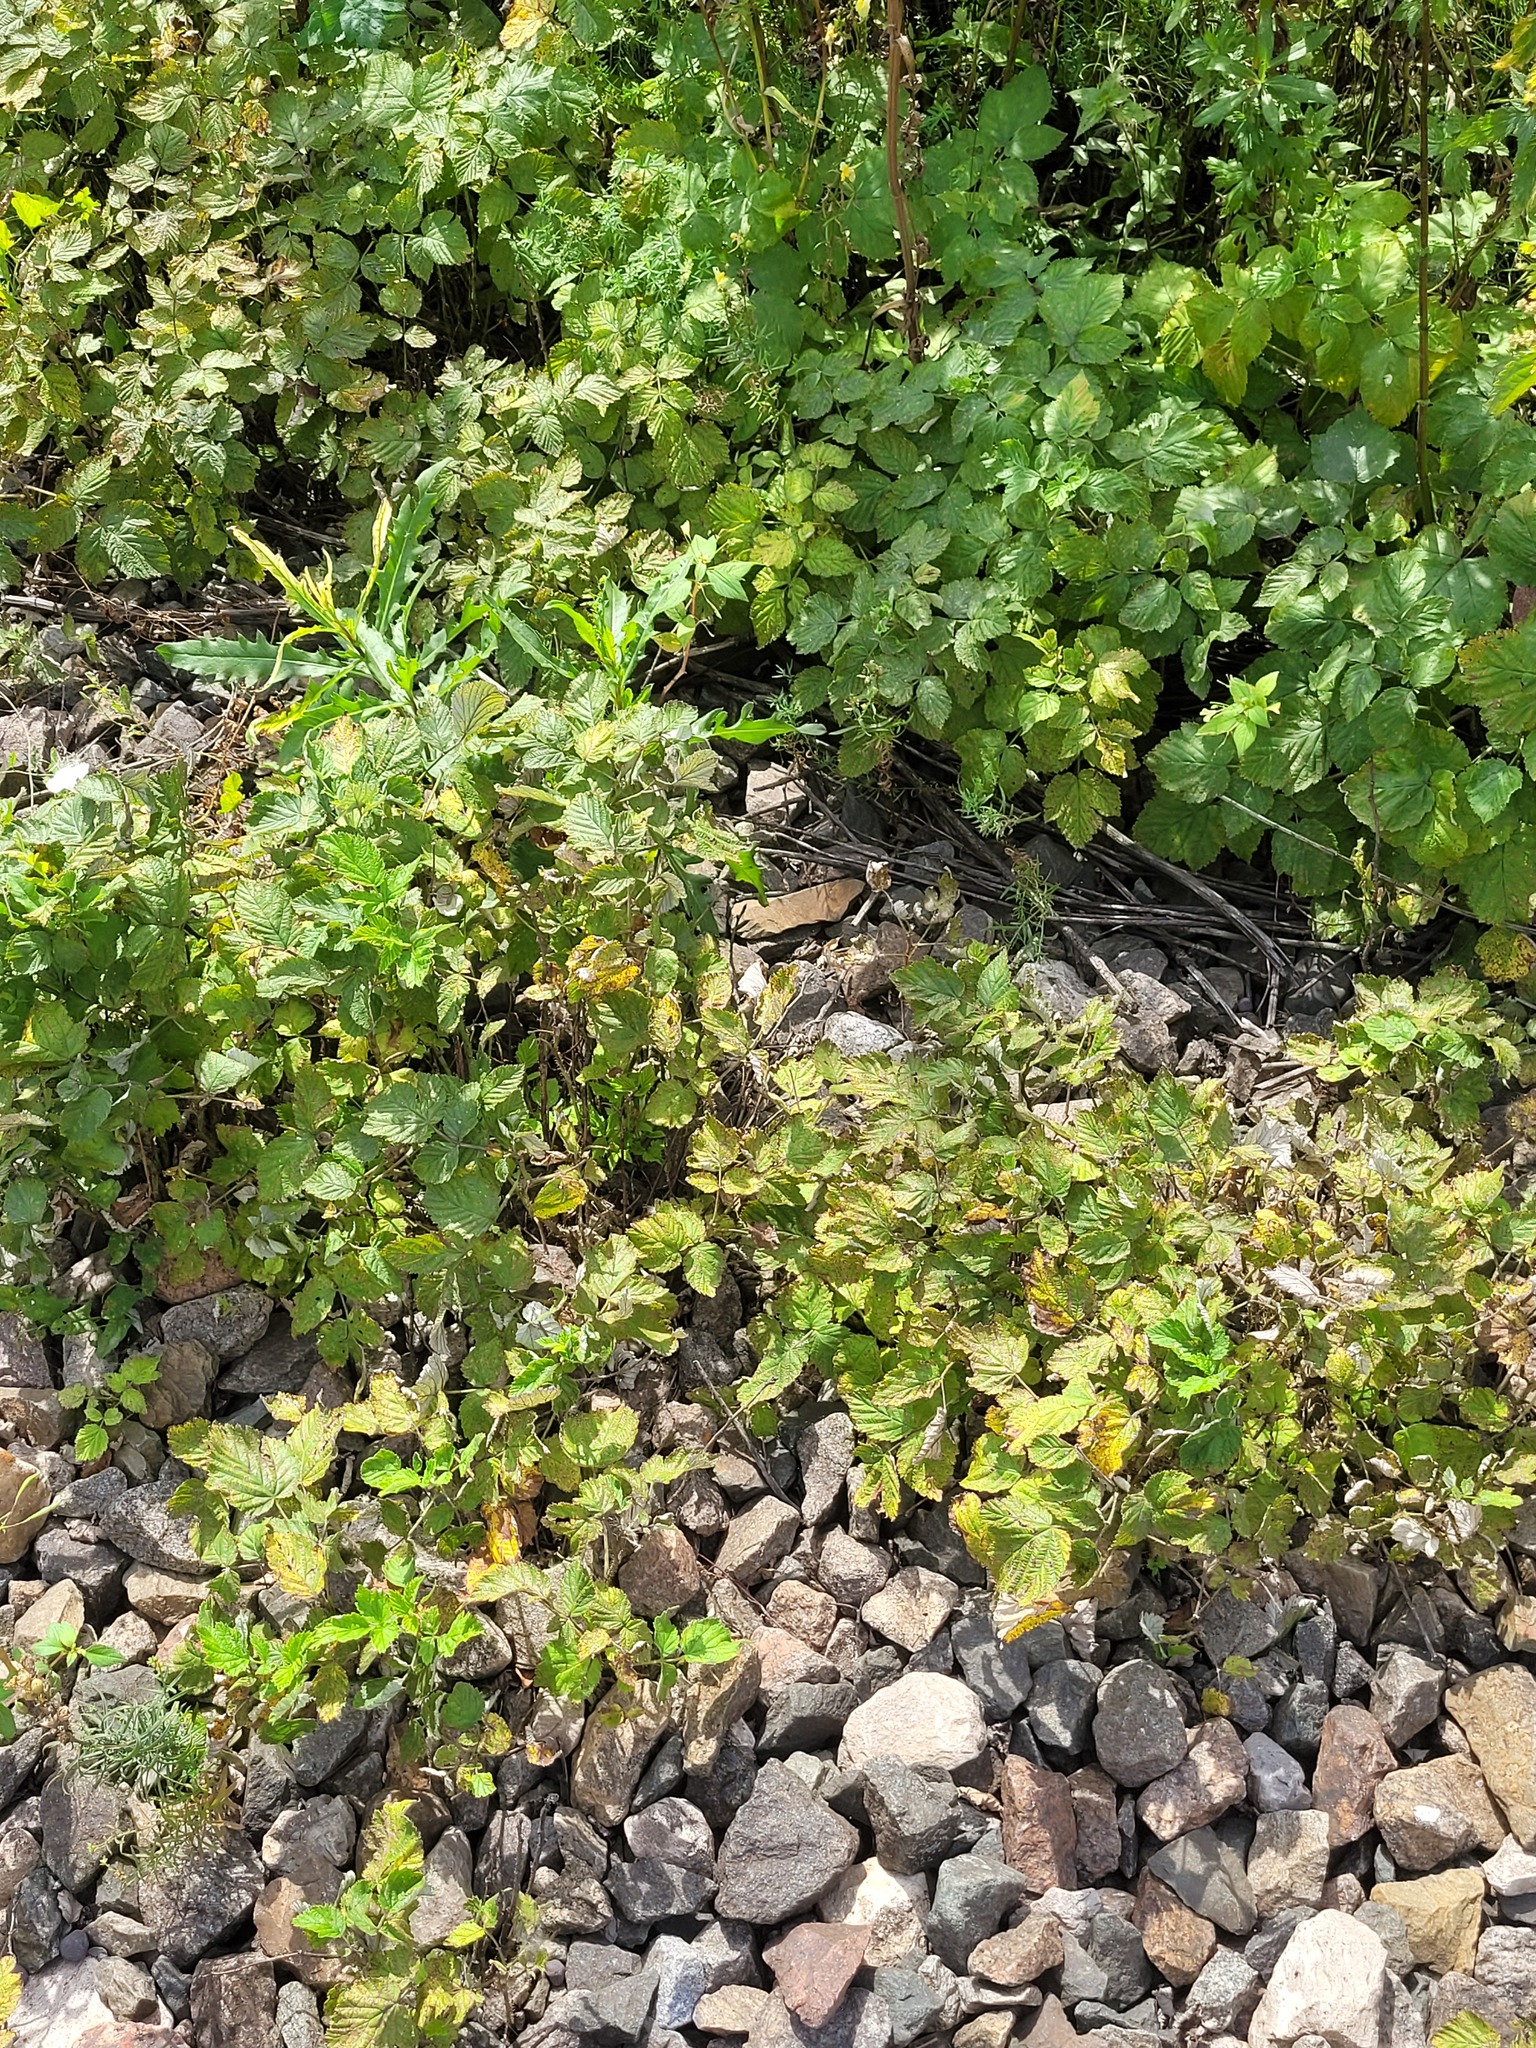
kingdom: Plantae
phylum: Tracheophyta
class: Magnoliopsida
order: Rosales
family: Rosaceae
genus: Rubus
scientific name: Rubus idaeus
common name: Raspberry
